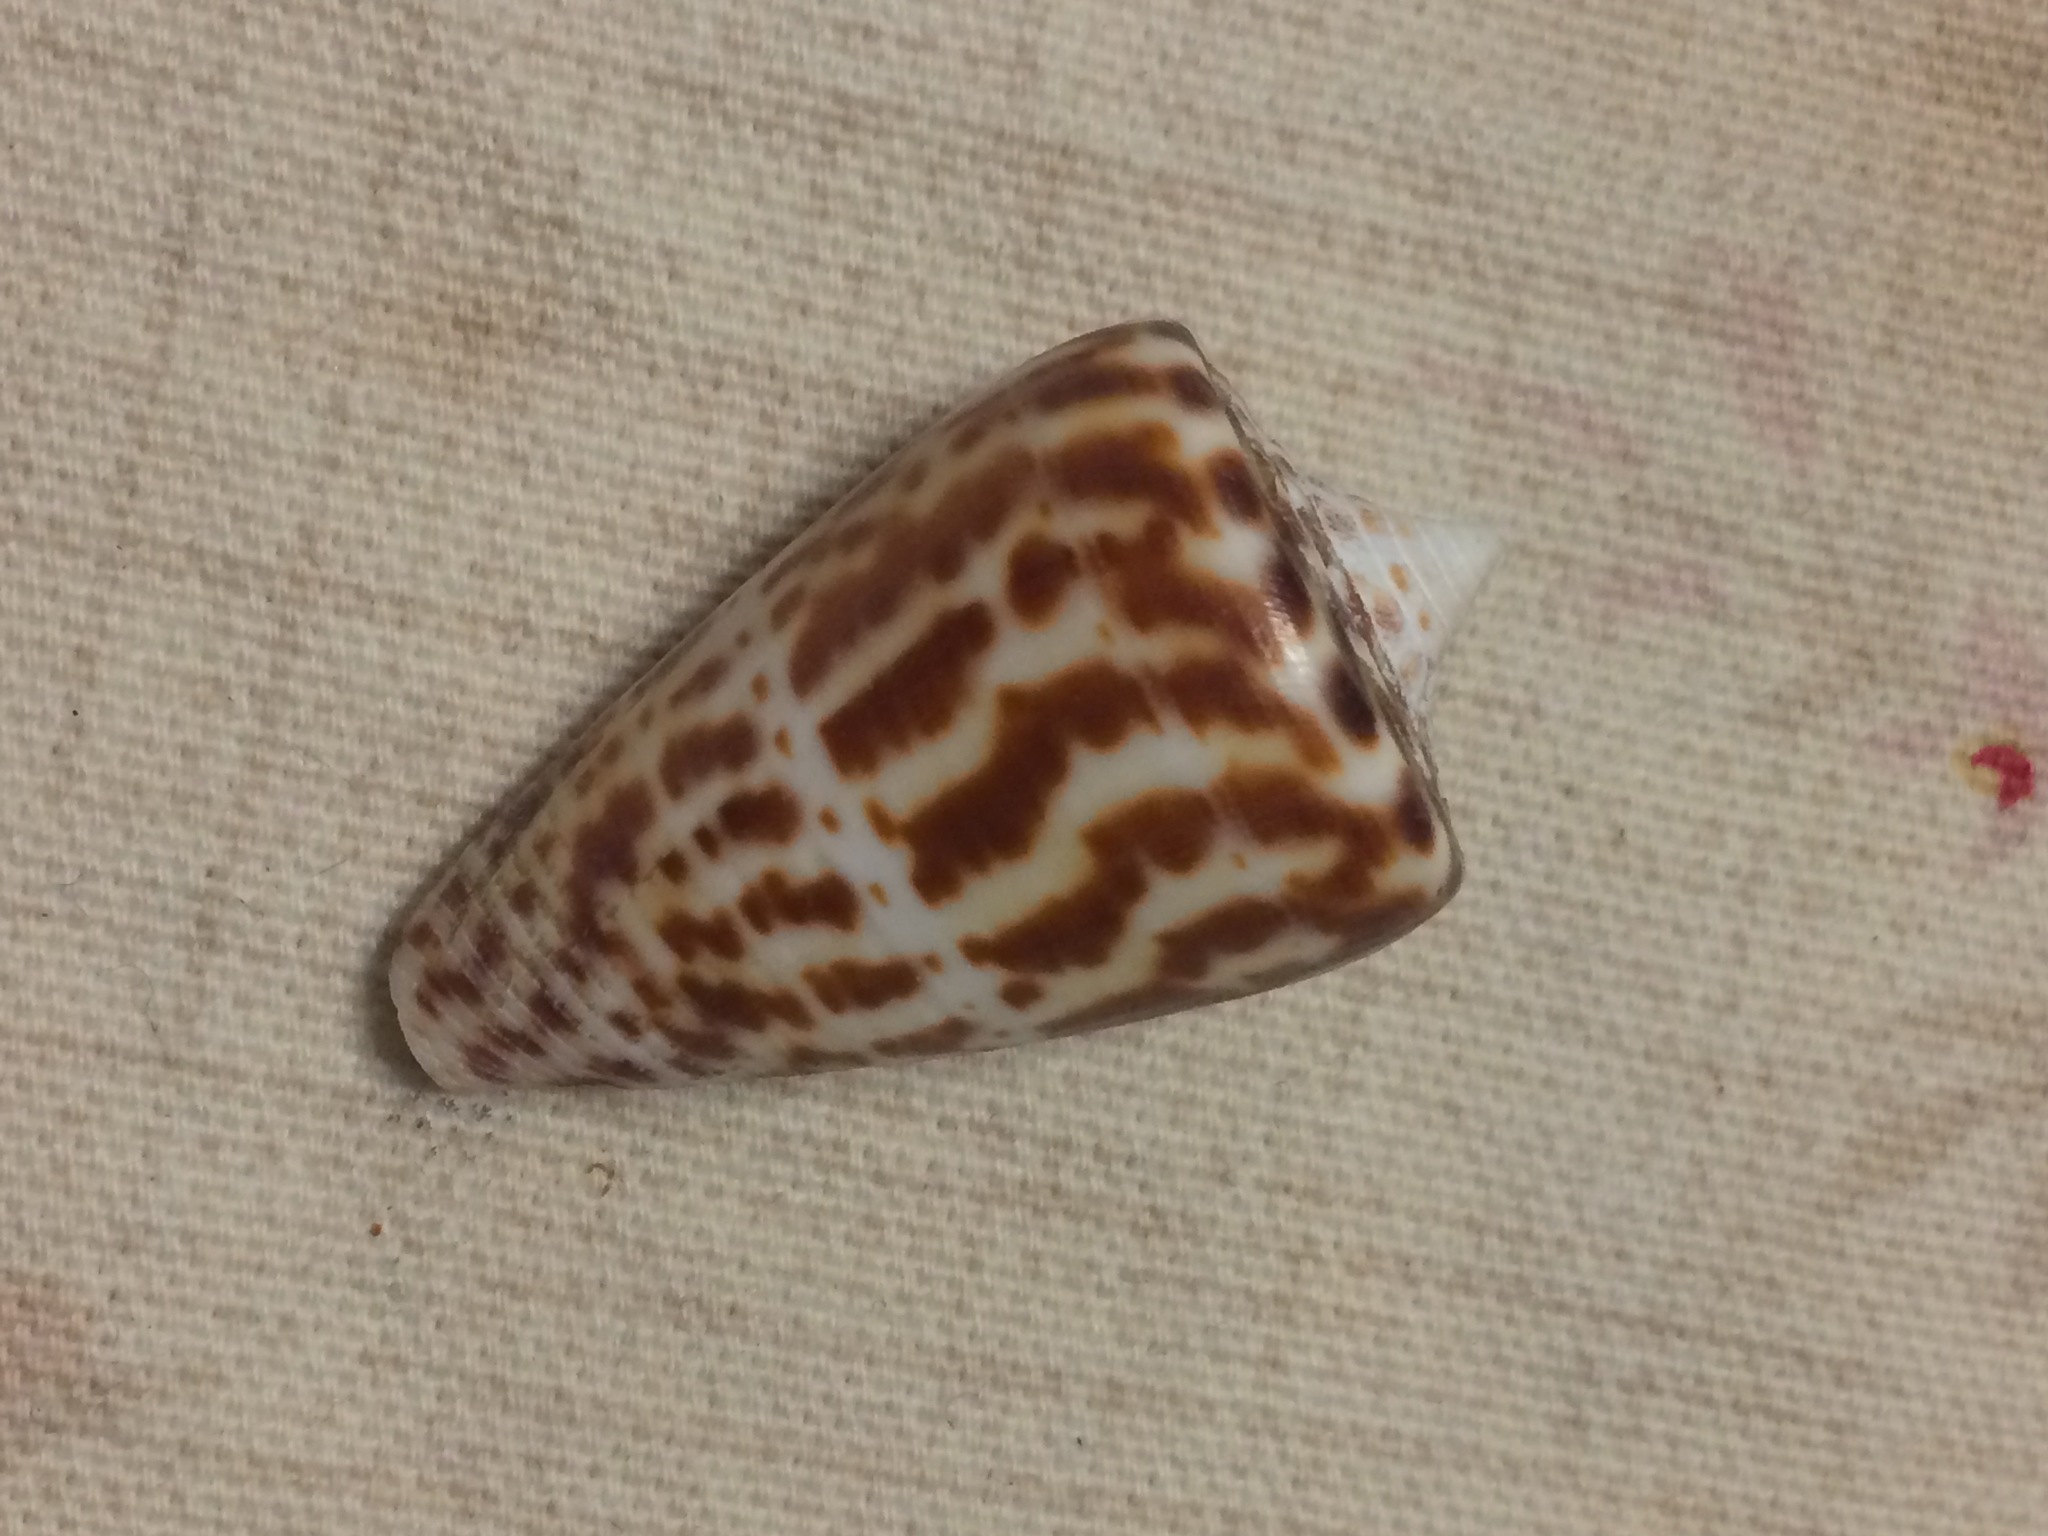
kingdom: Animalia
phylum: Mollusca
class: Gastropoda
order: Neogastropoda
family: Conidae
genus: Conus
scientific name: Conus spurius
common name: Alphabet cone
